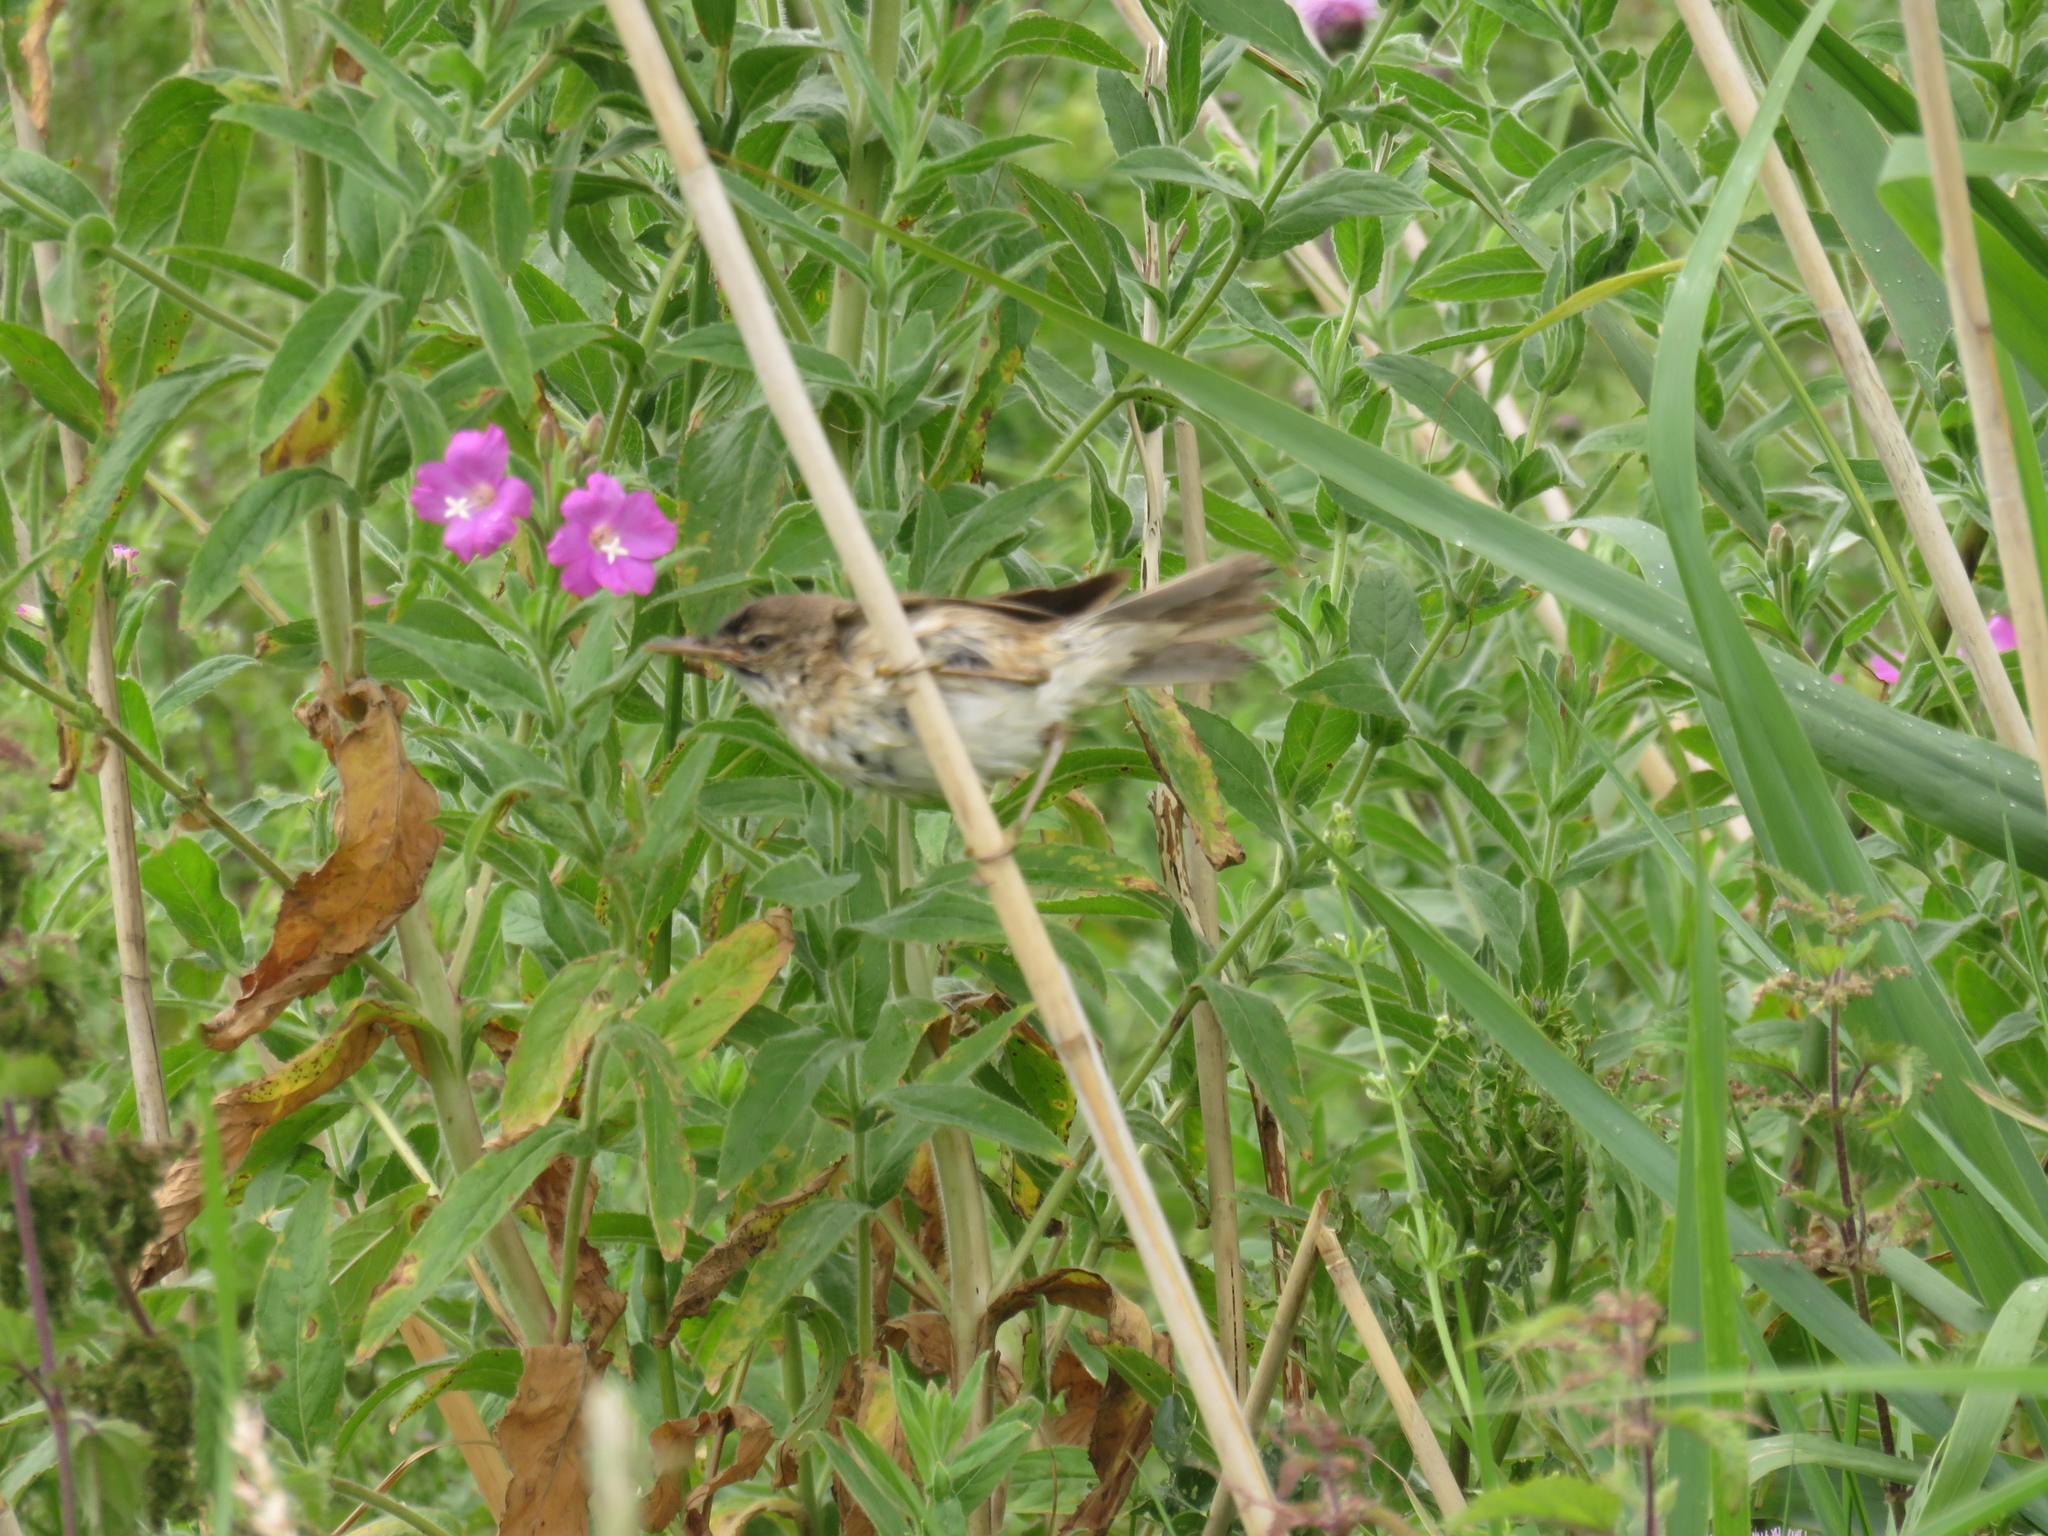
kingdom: Animalia
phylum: Chordata
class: Aves
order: Passeriformes
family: Acrocephalidae
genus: Acrocephalus
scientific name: Acrocephalus scirpaceus
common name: Eurasian reed warbler
